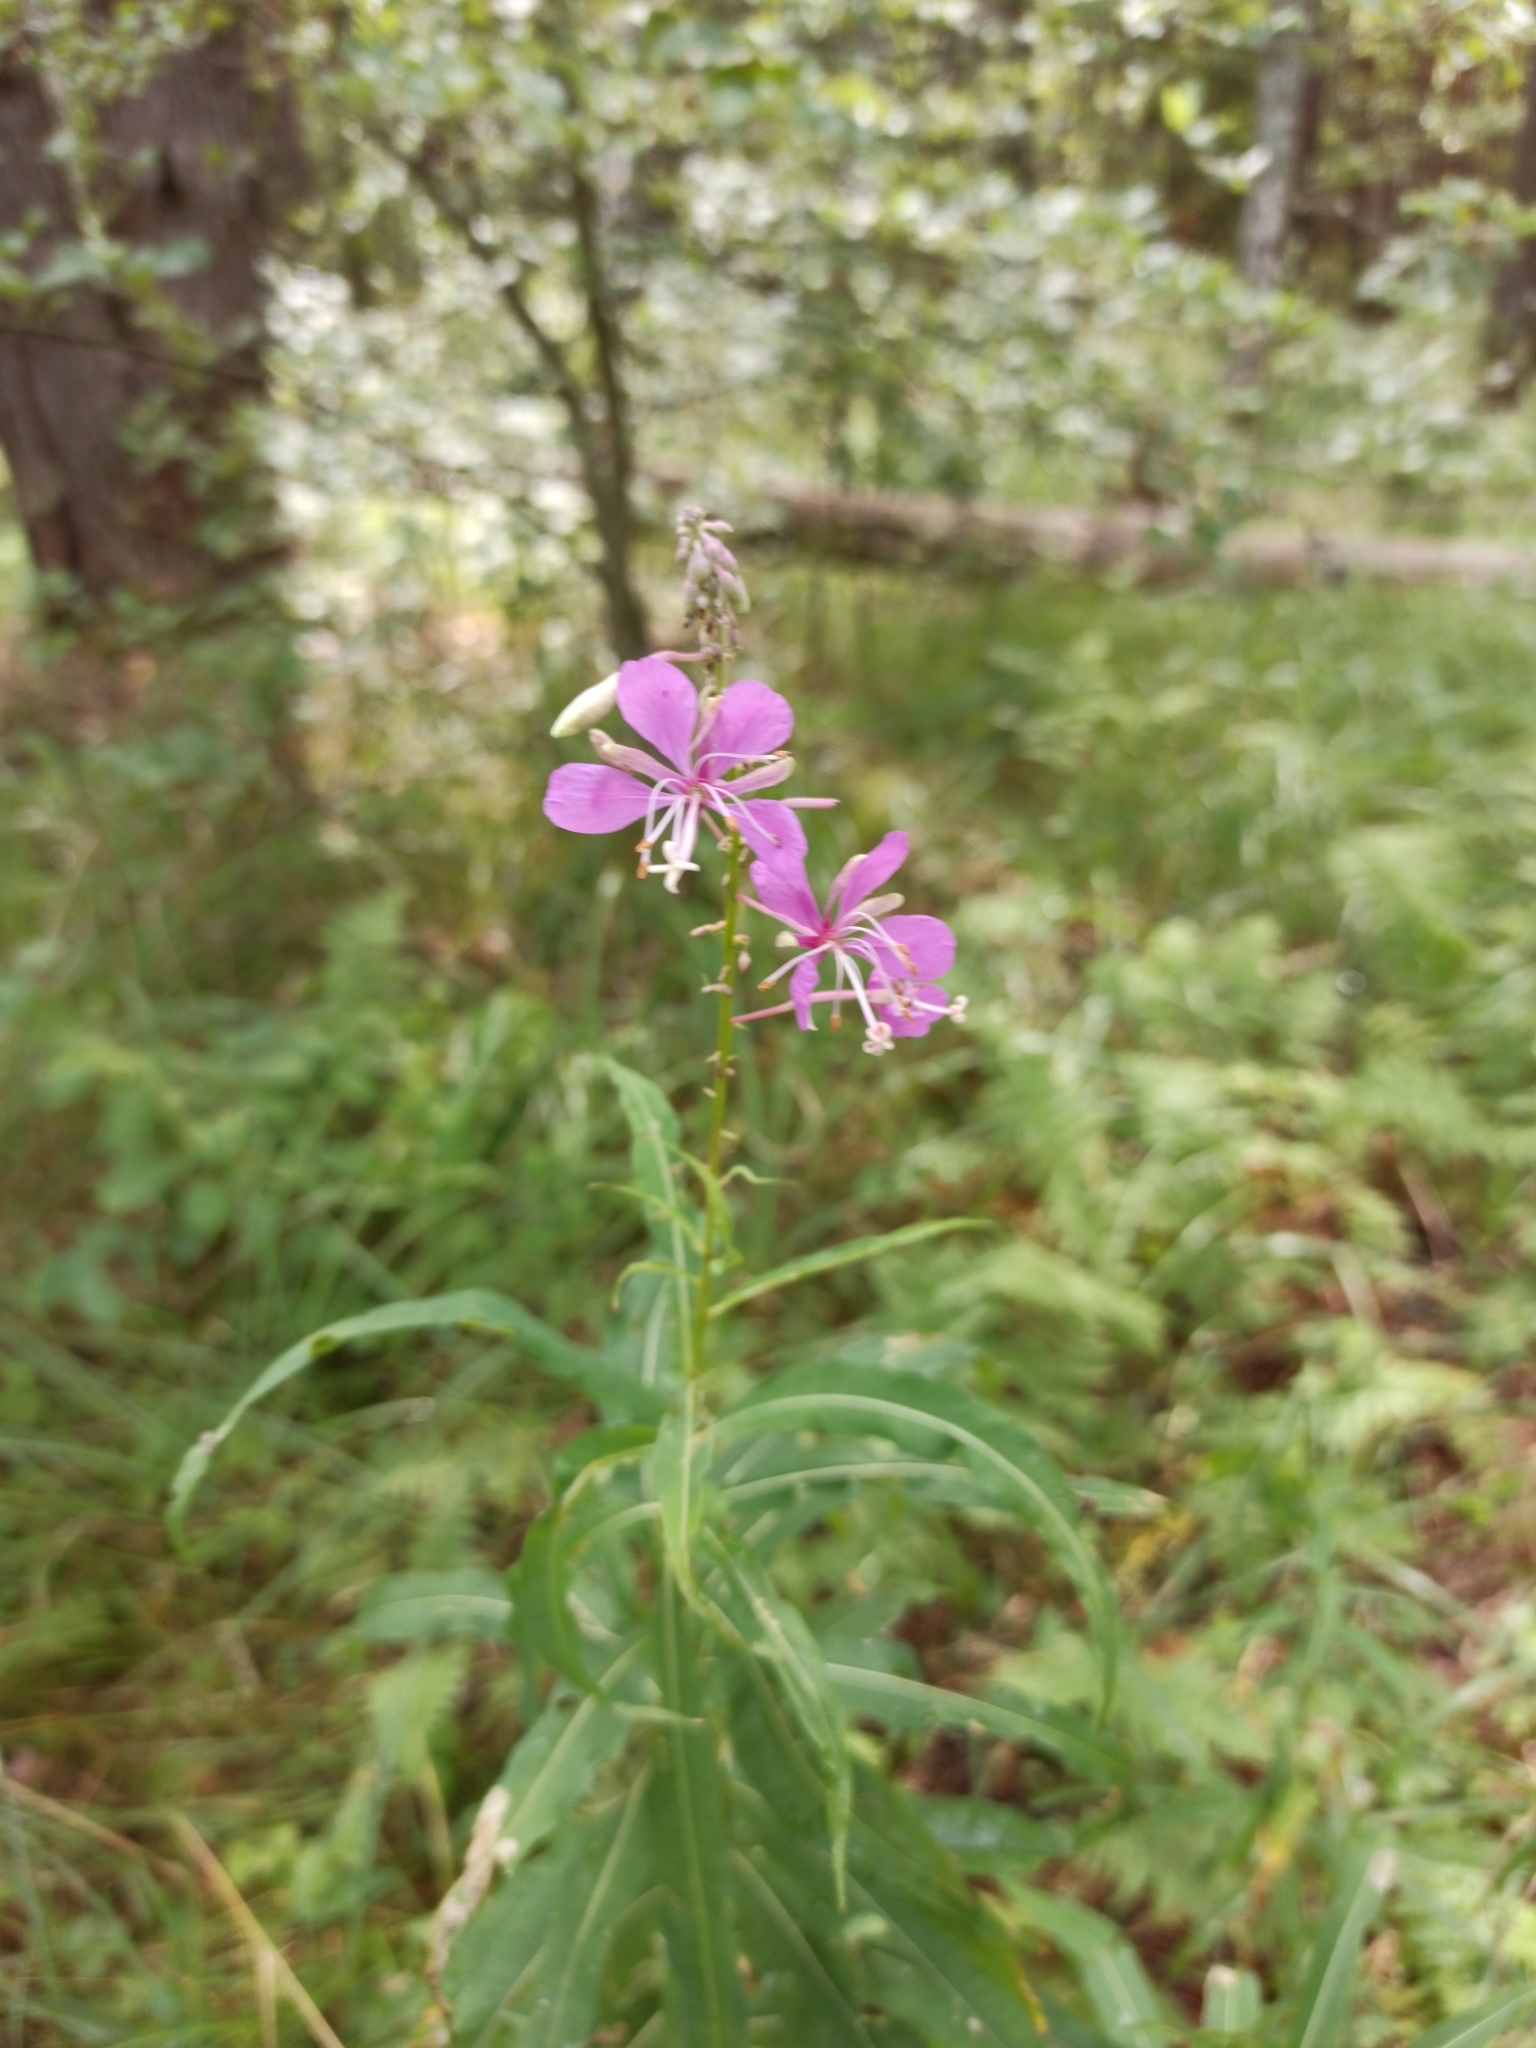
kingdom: Plantae
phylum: Tracheophyta
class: Magnoliopsida
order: Myrtales
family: Onagraceae
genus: Chamaenerion
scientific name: Chamaenerion angustifolium
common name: Fireweed
